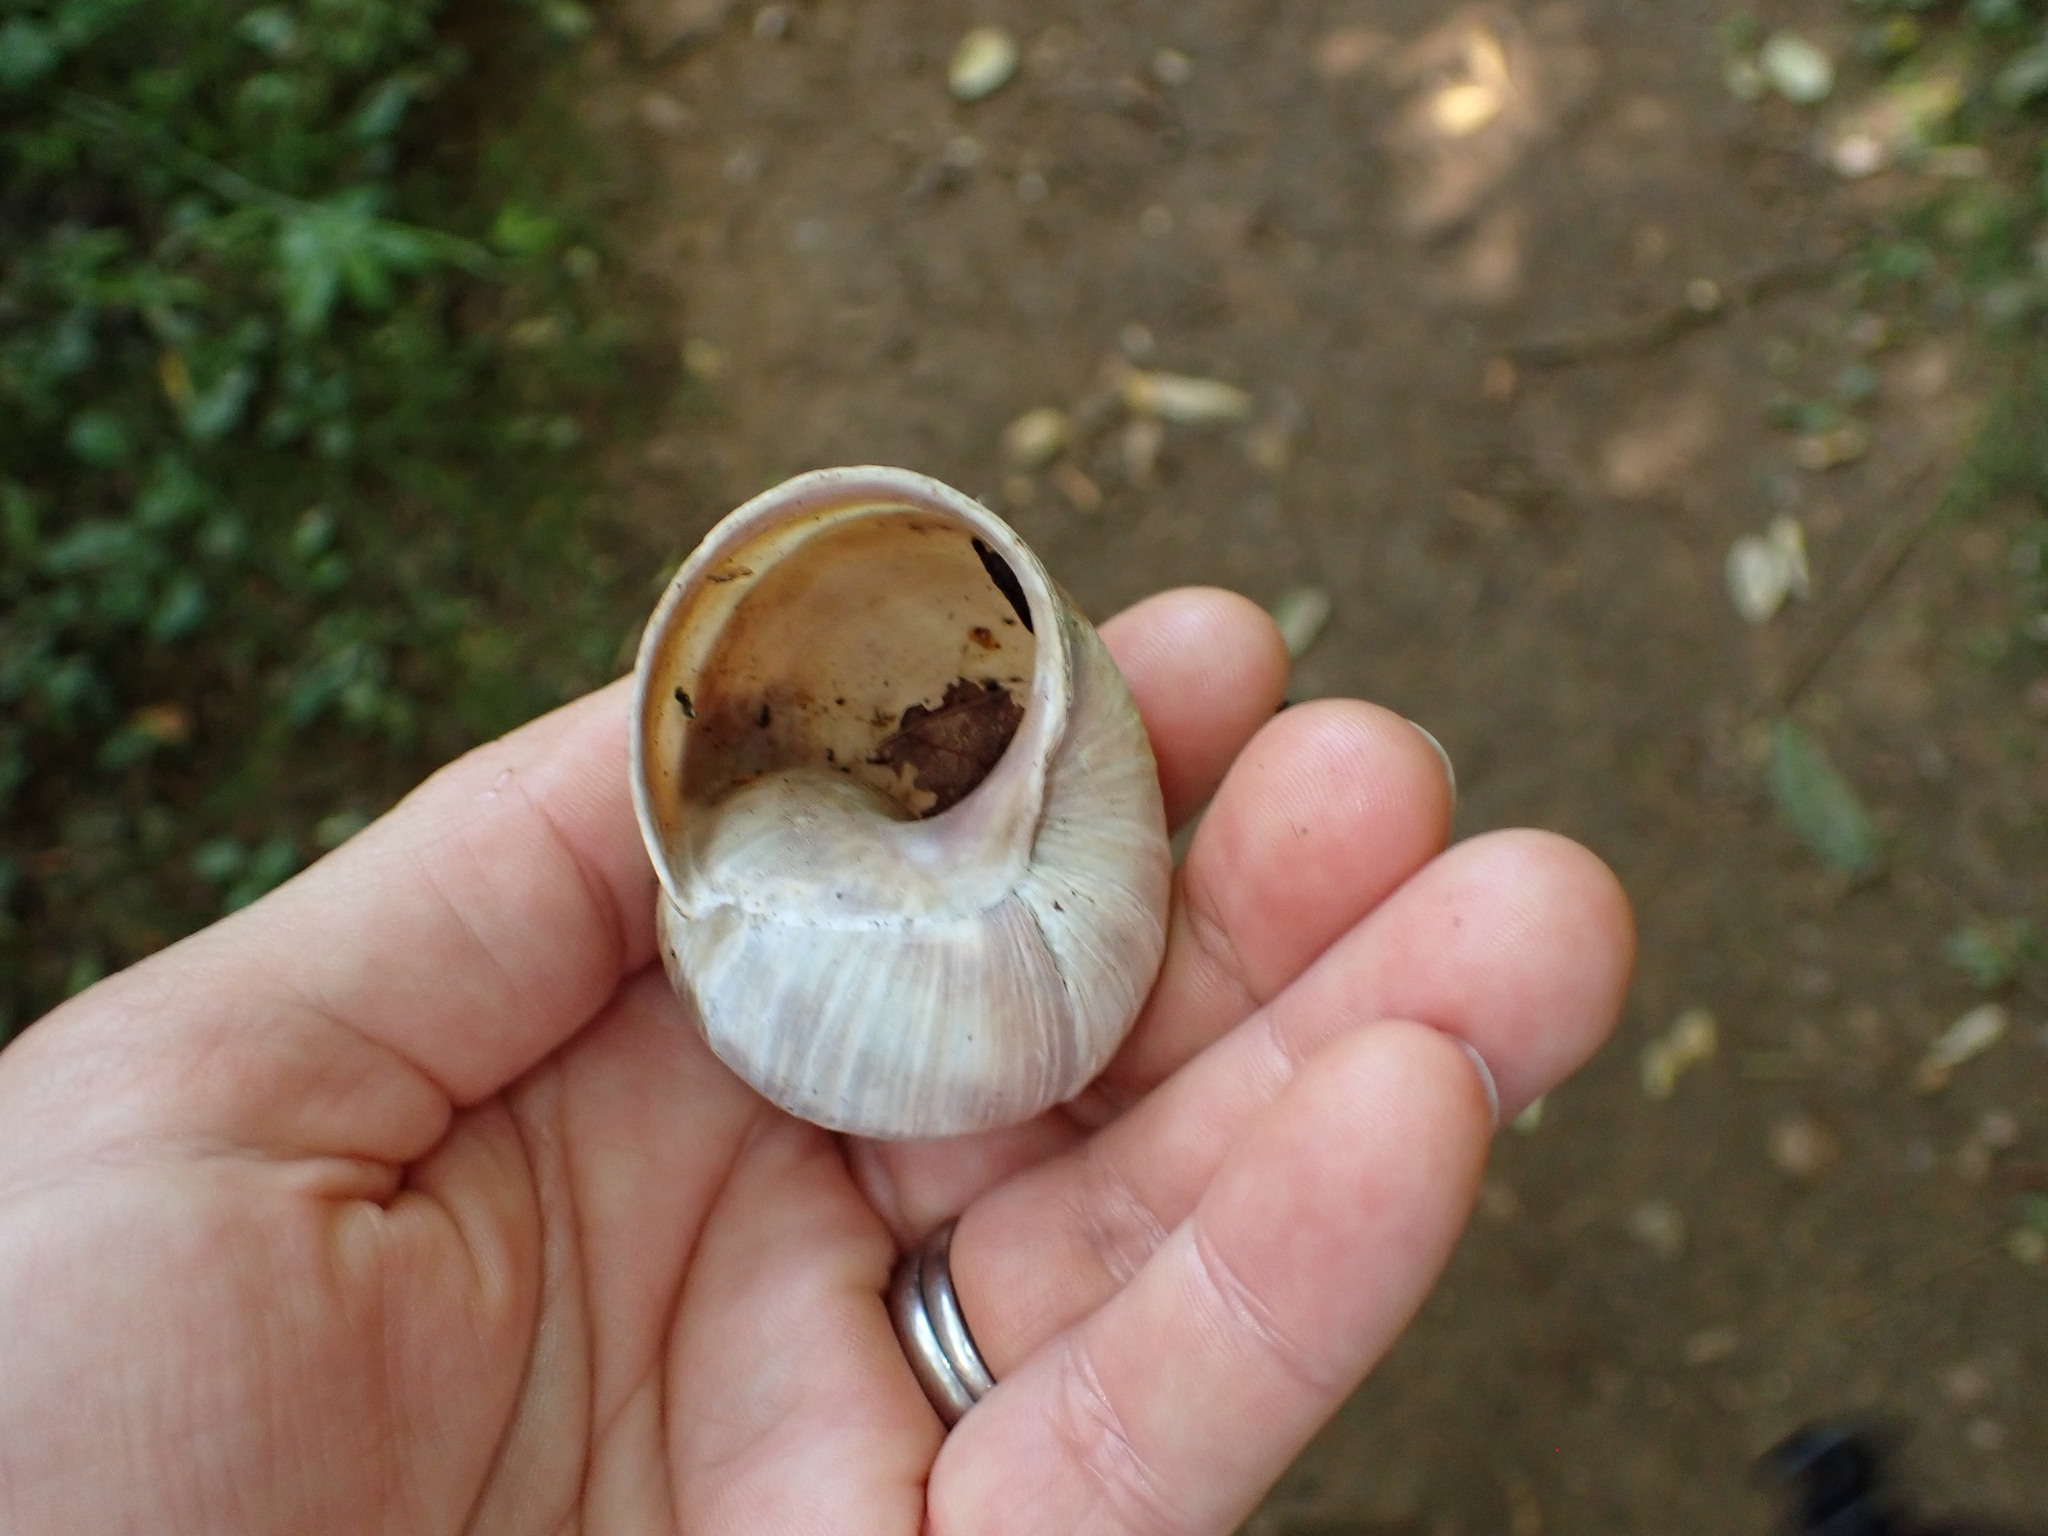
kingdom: Animalia
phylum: Mollusca
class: Gastropoda
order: Stylommatophora
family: Helicidae
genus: Helix
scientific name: Helix pomatia
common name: Roman snail
